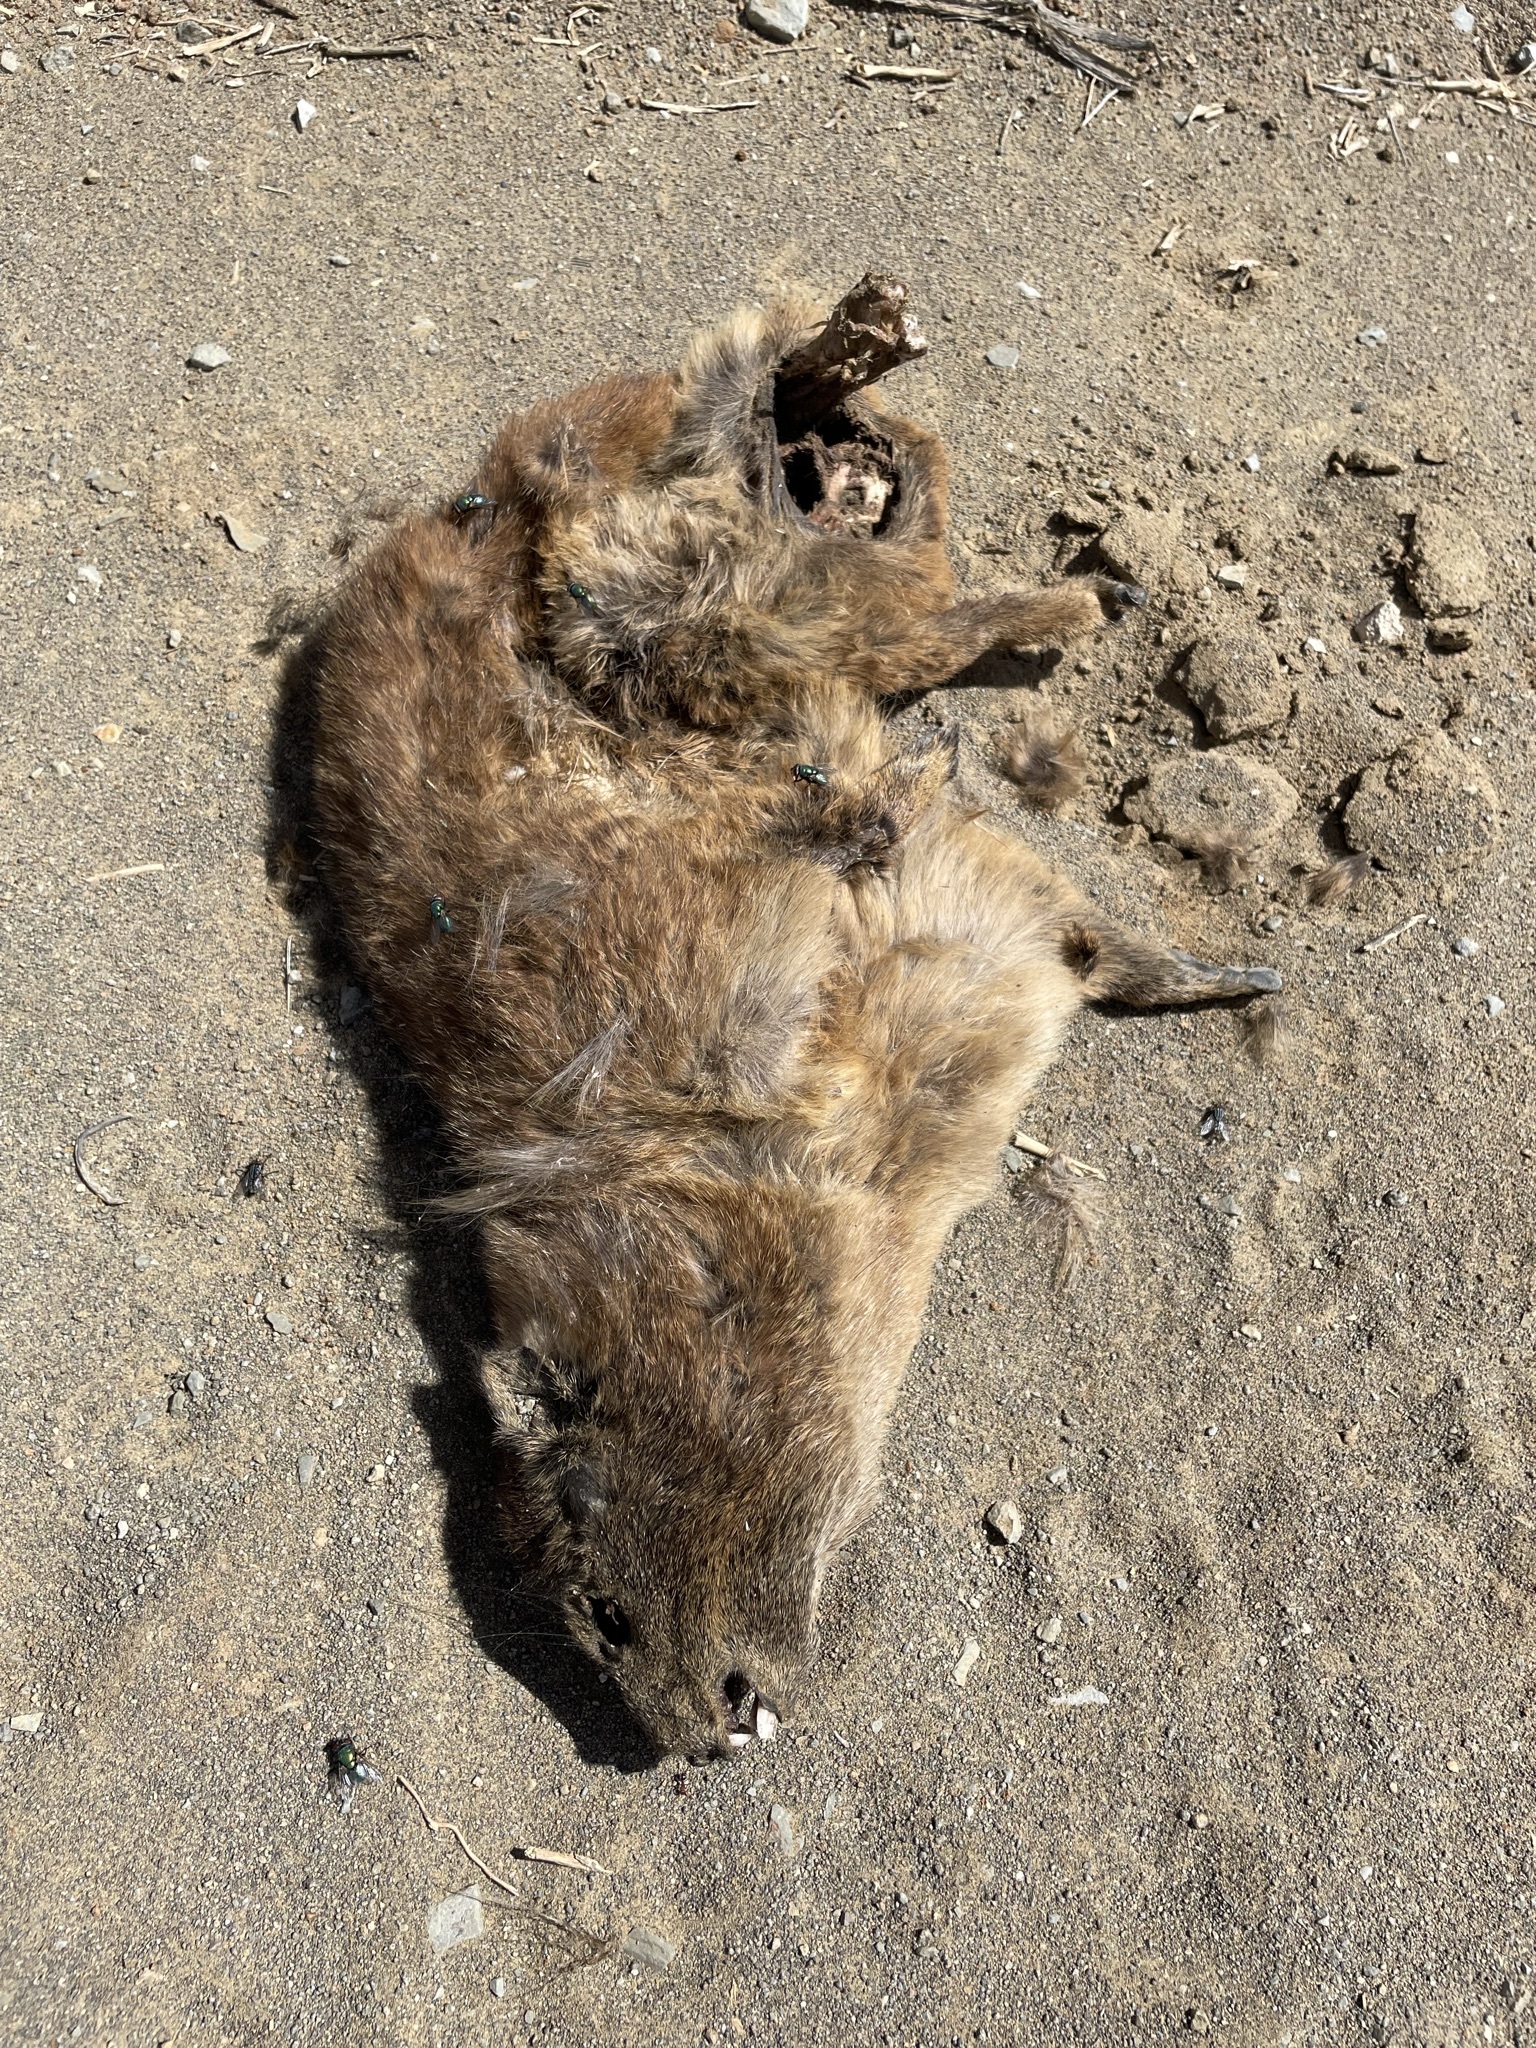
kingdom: Animalia
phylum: Chordata
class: Mammalia
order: Hyracoidea
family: Procaviidae
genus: Procavia
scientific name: Procavia capensis
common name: Rock hyrax
